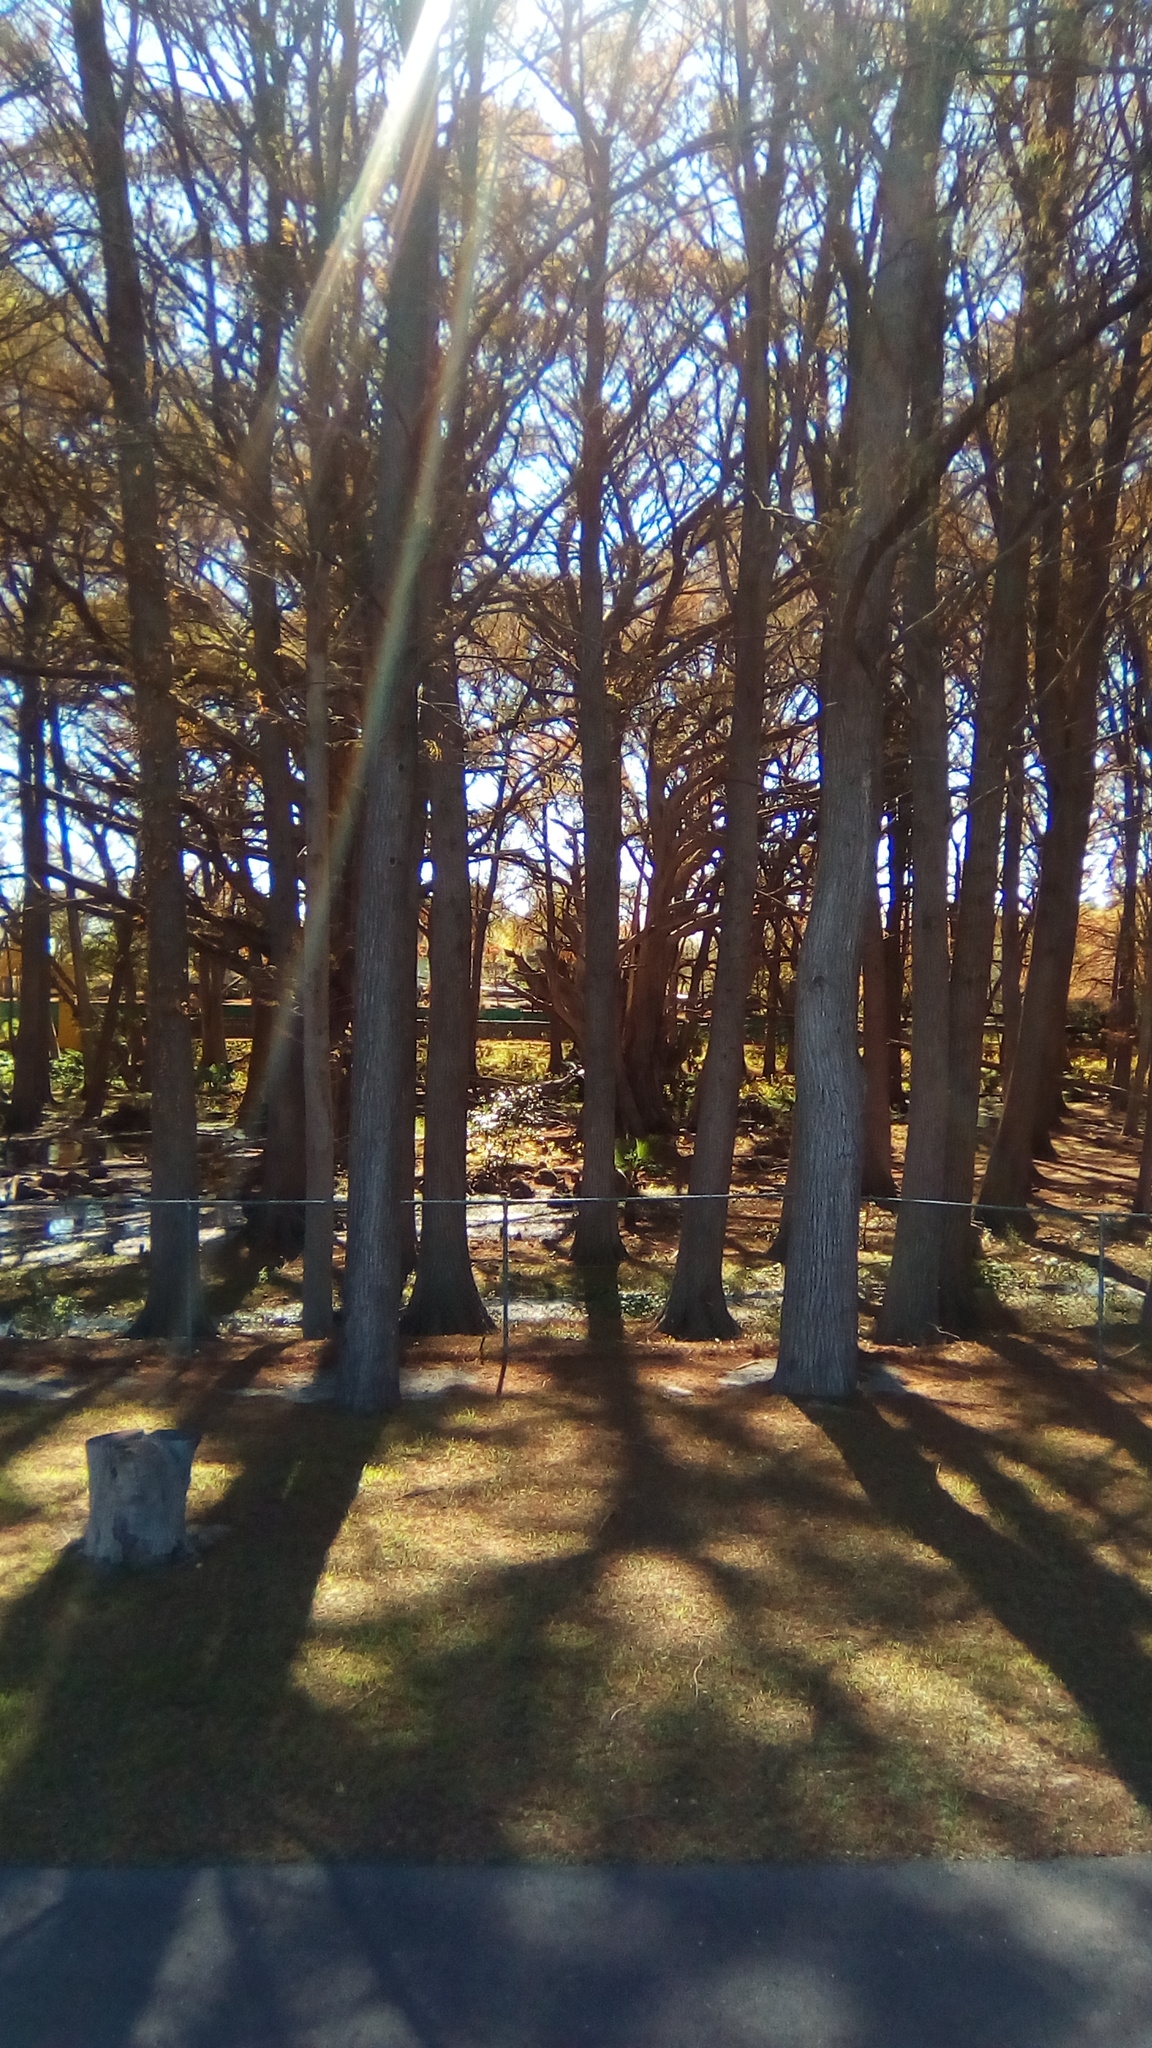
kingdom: Plantae
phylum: Tracheophyta
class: Pinopsida
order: Pinales
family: Cupressaceae
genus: Taxodium
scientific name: Taxodium mucronatum
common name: Montezume bald cypress
